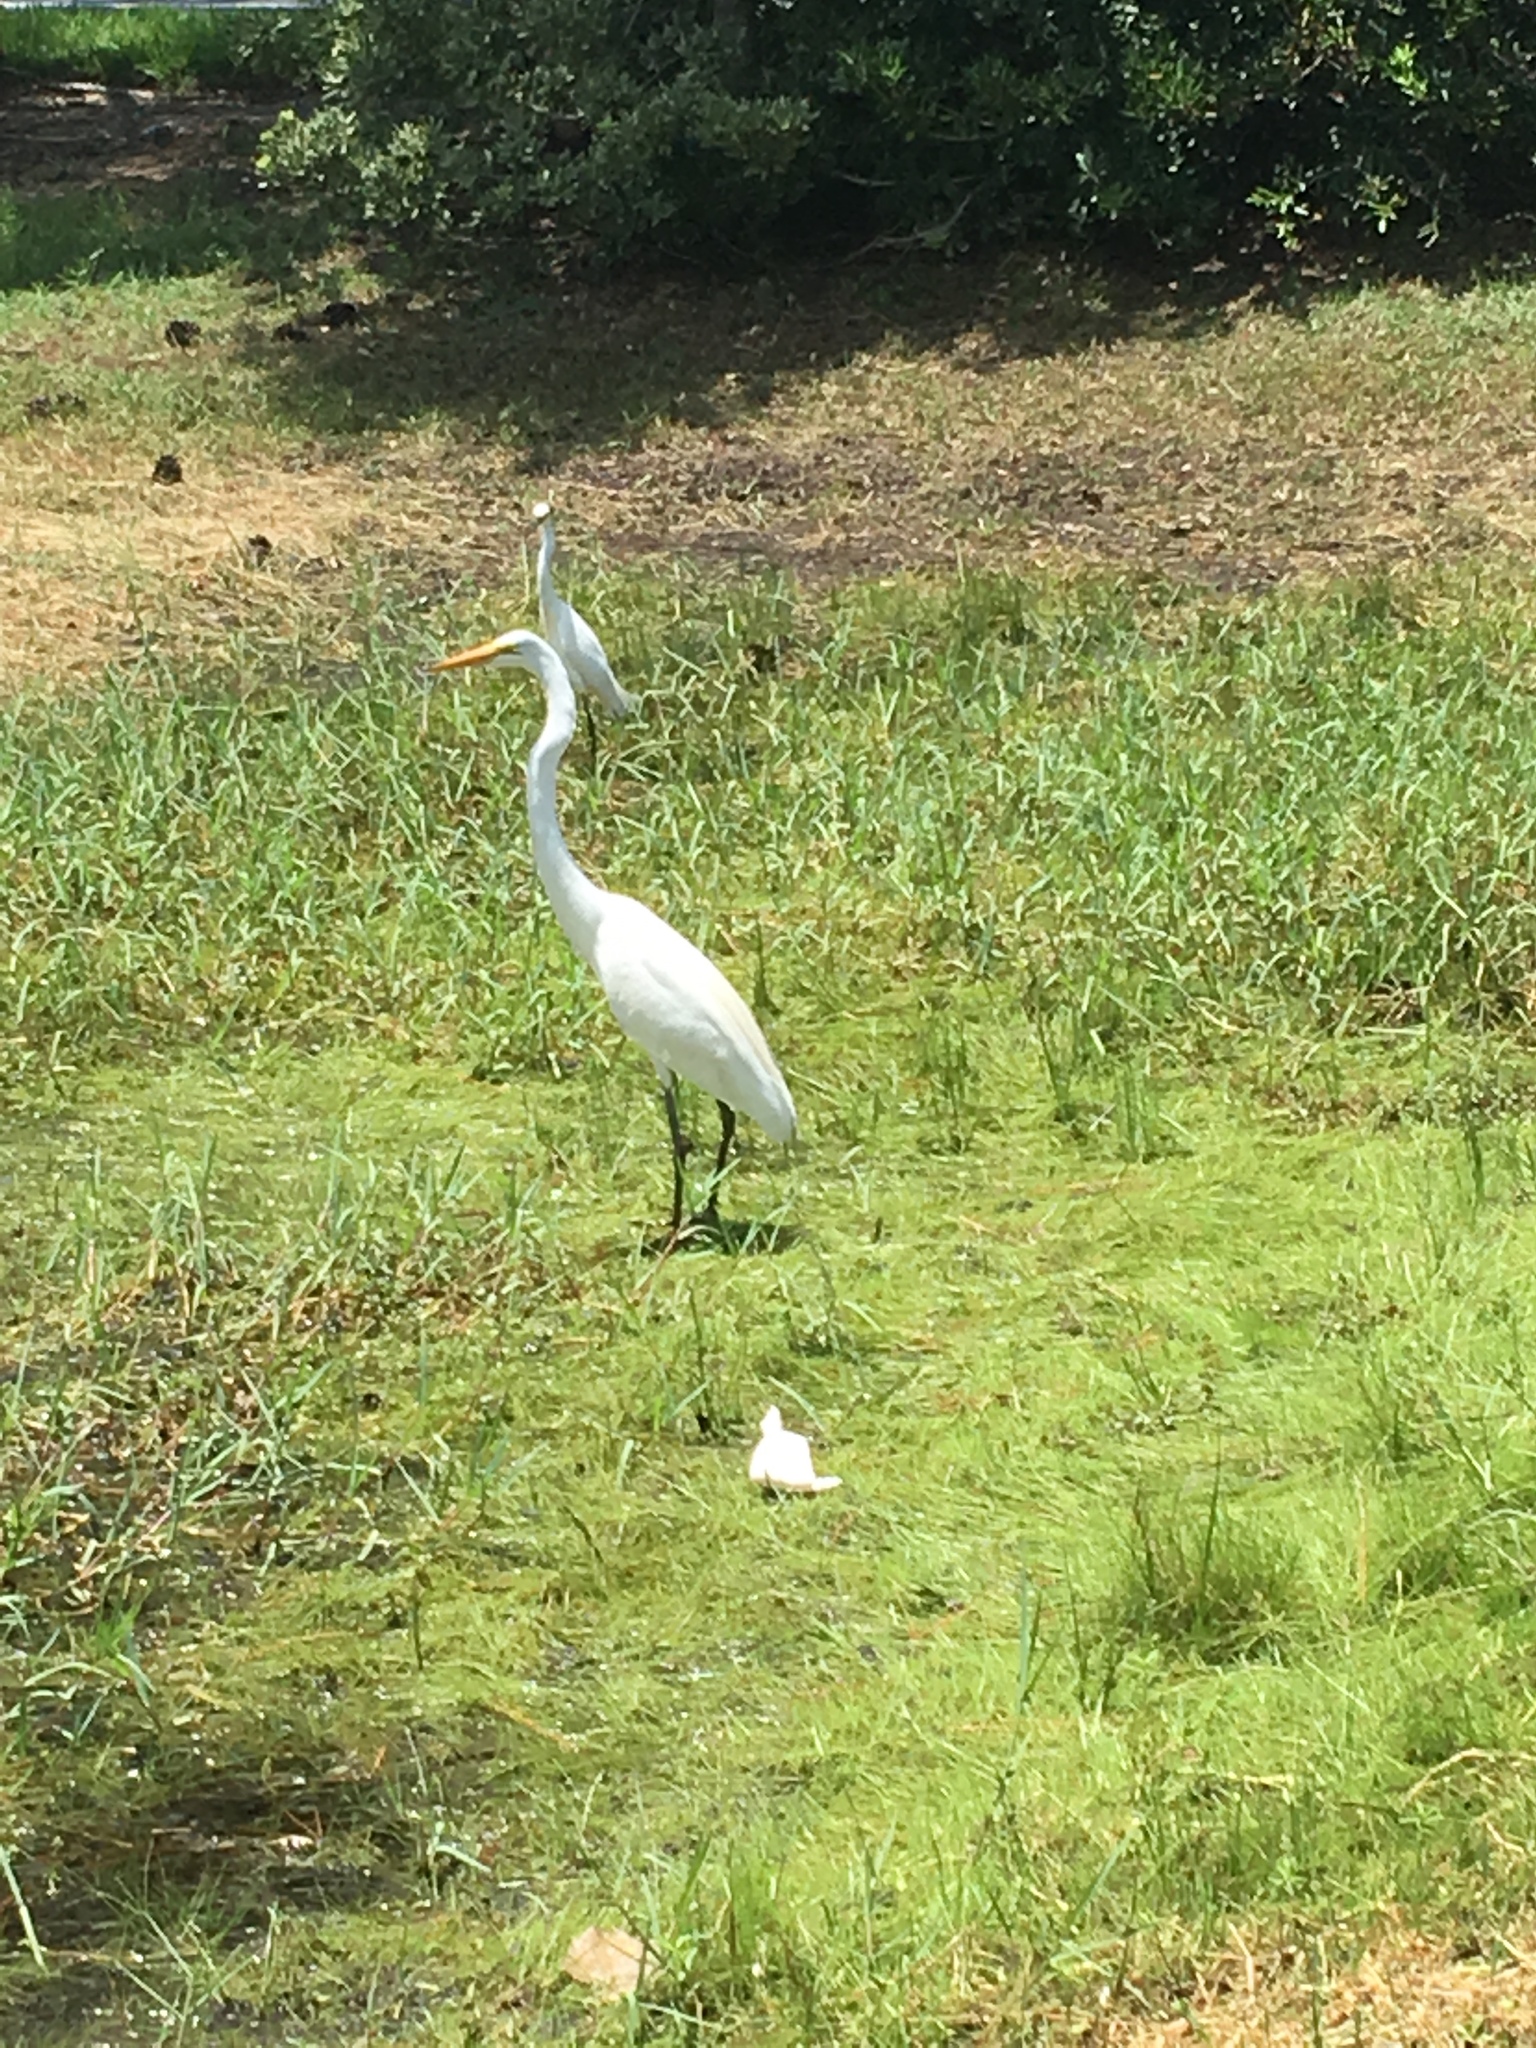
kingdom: Animalia
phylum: Chordata
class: Aves
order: Pelecaniformes
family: Ardeidae
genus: Ardea
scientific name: Ardea alba
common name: Great egret
